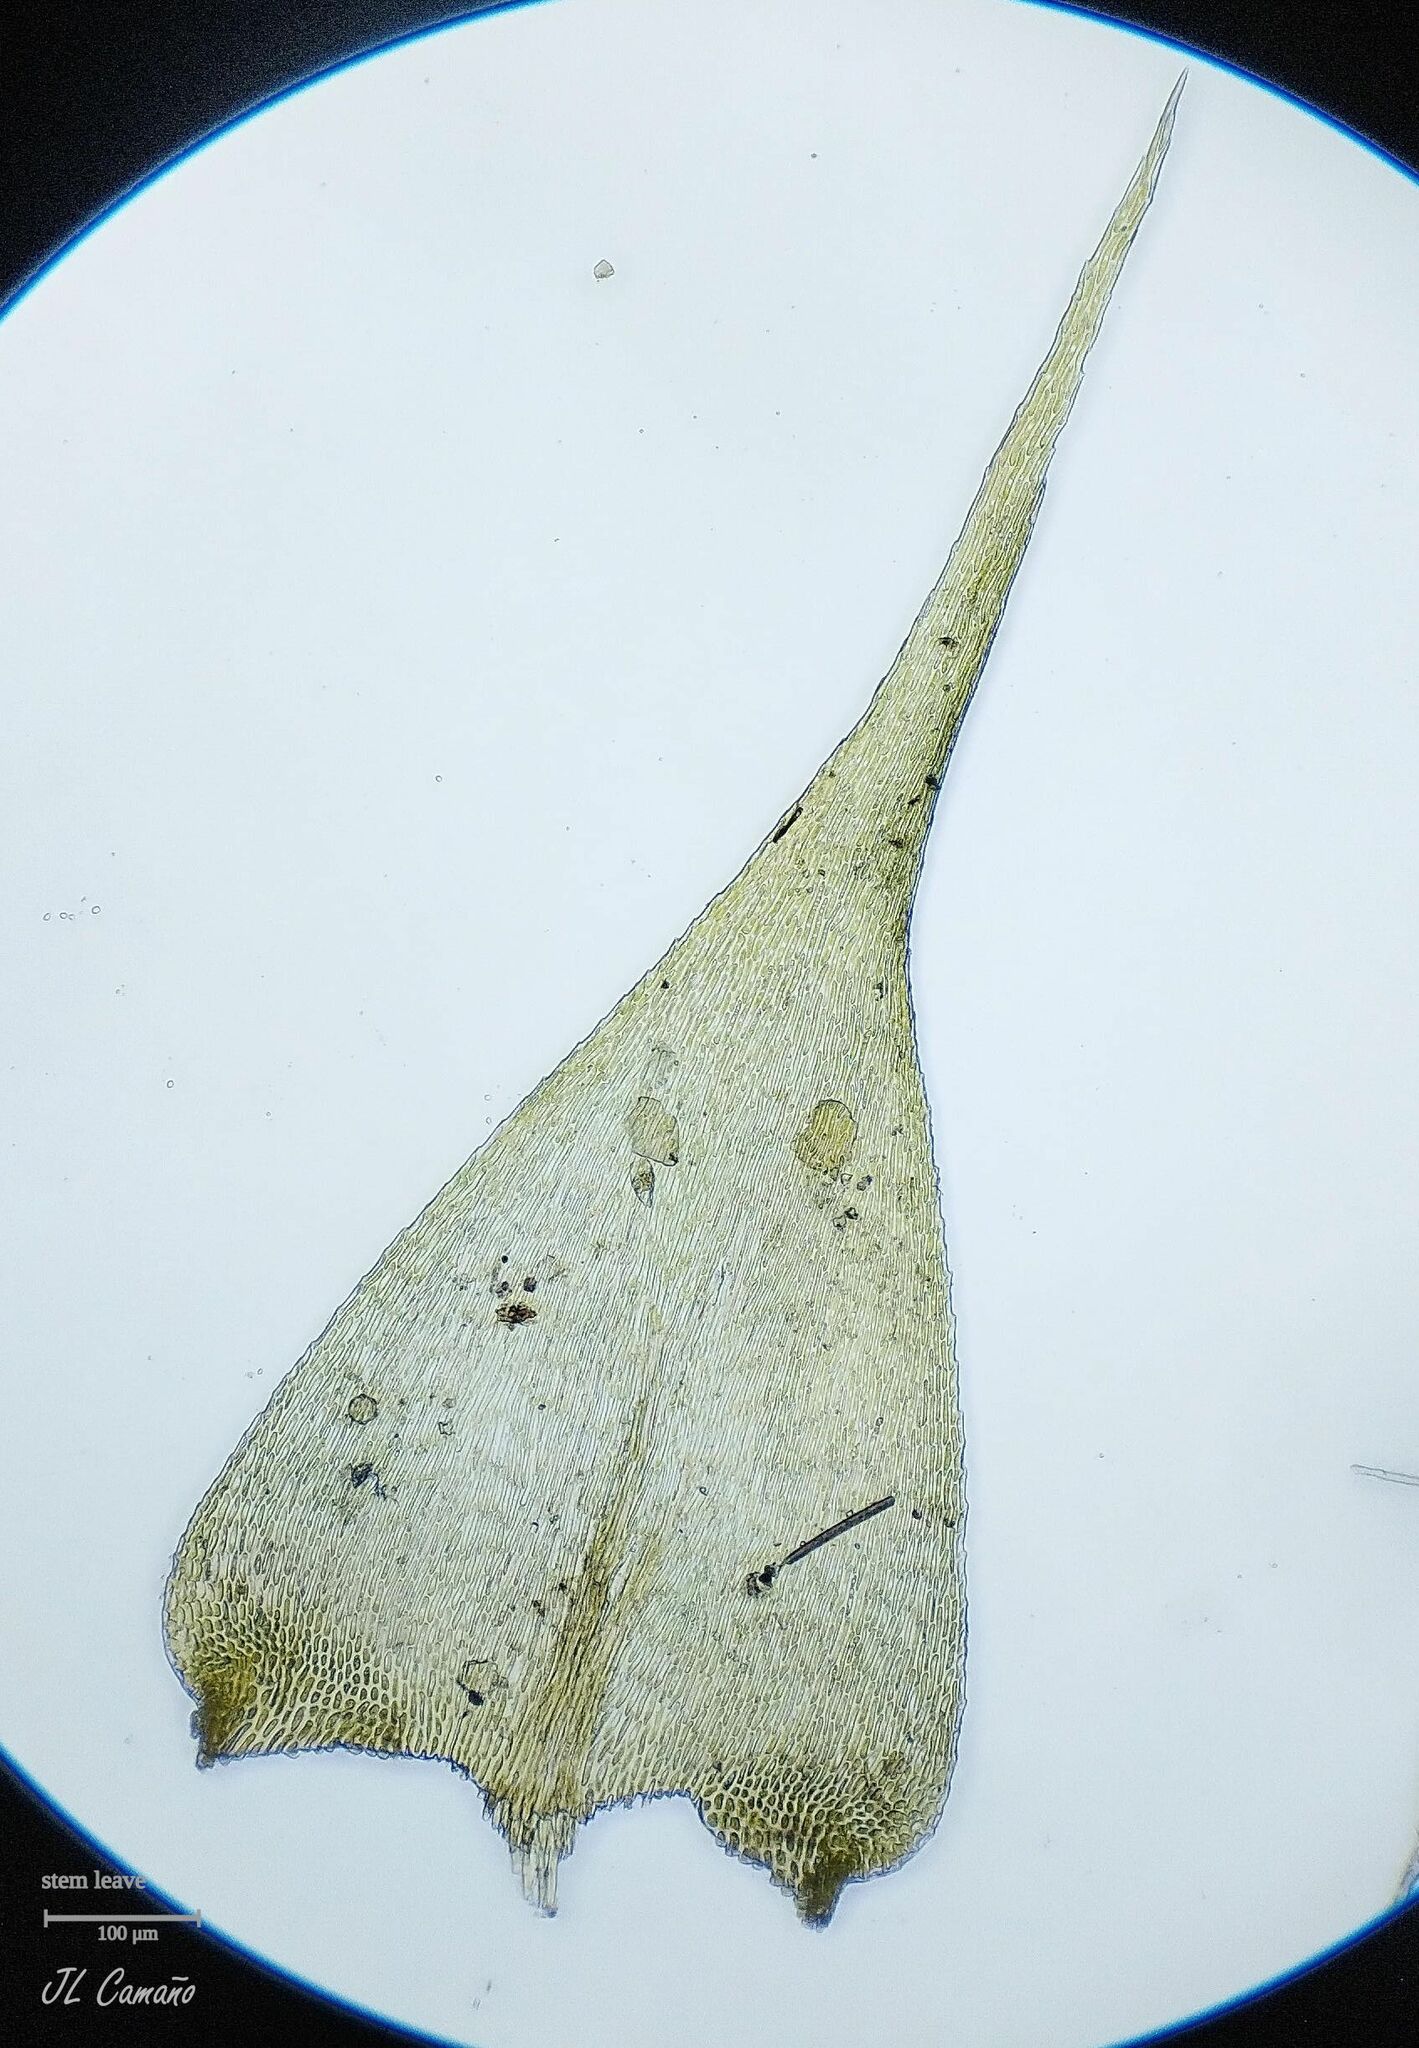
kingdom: Plantae
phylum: Bryophyta
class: Bryopsida
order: Hypnales
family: Neckeraceae
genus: Thamnobryum
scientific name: Thamnobryum alopecurum
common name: Fox-tail feather-moss
